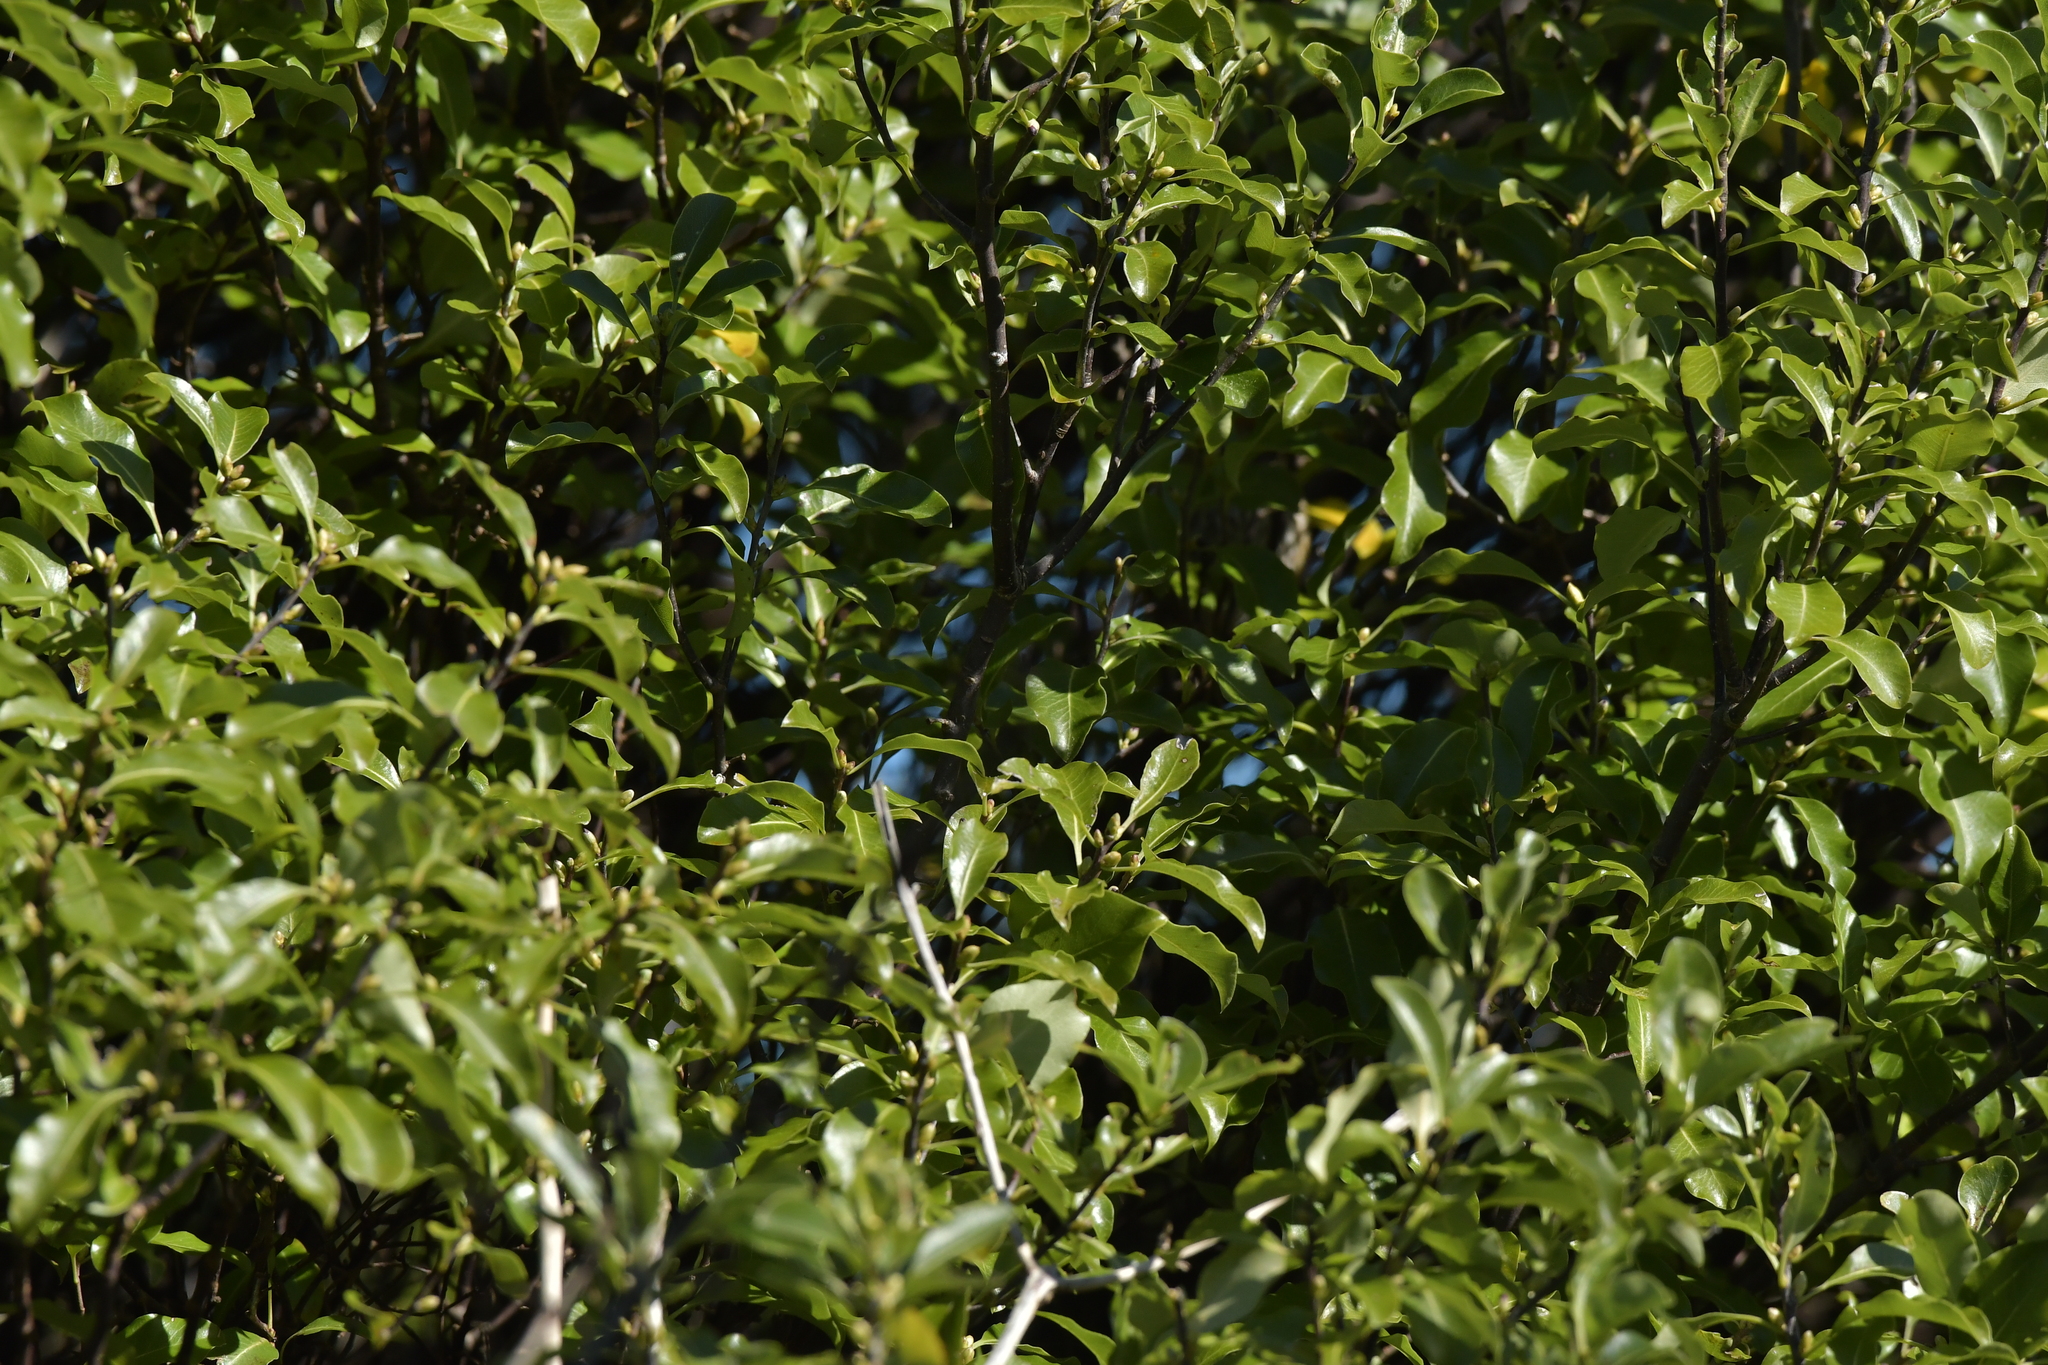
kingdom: Plantae
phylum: Tracheophyta
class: Magnoliopsida
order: Apiales
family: Pittosporaceae
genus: Pittosporum
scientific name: Pittosporum tenuifolium
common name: Kohuhu
